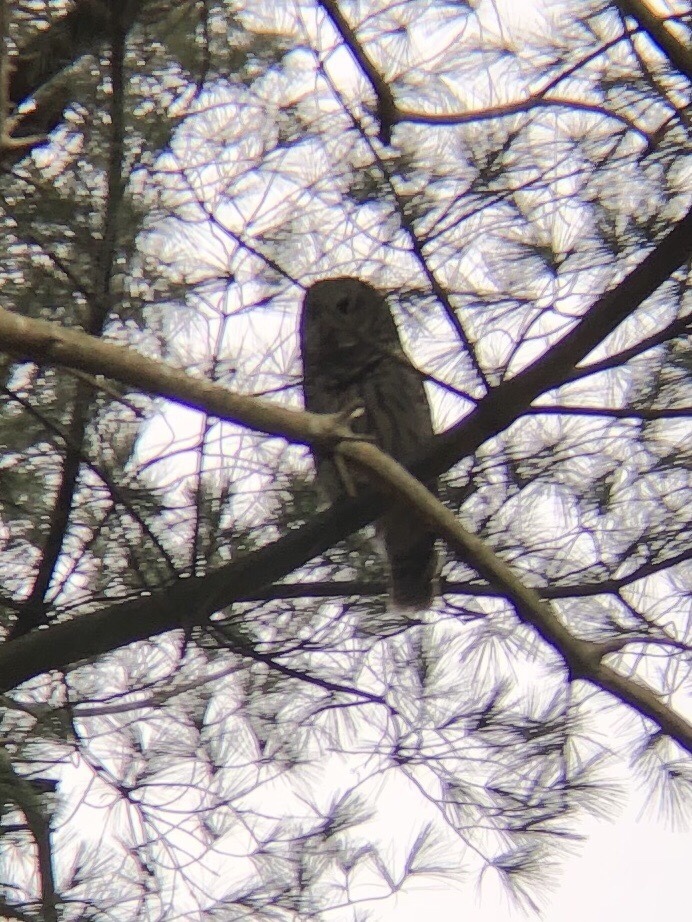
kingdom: Animalia
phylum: Chordata
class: Aves
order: Strigiformes
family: Strigidae
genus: Strix
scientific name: Strix varia
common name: Barred owl
